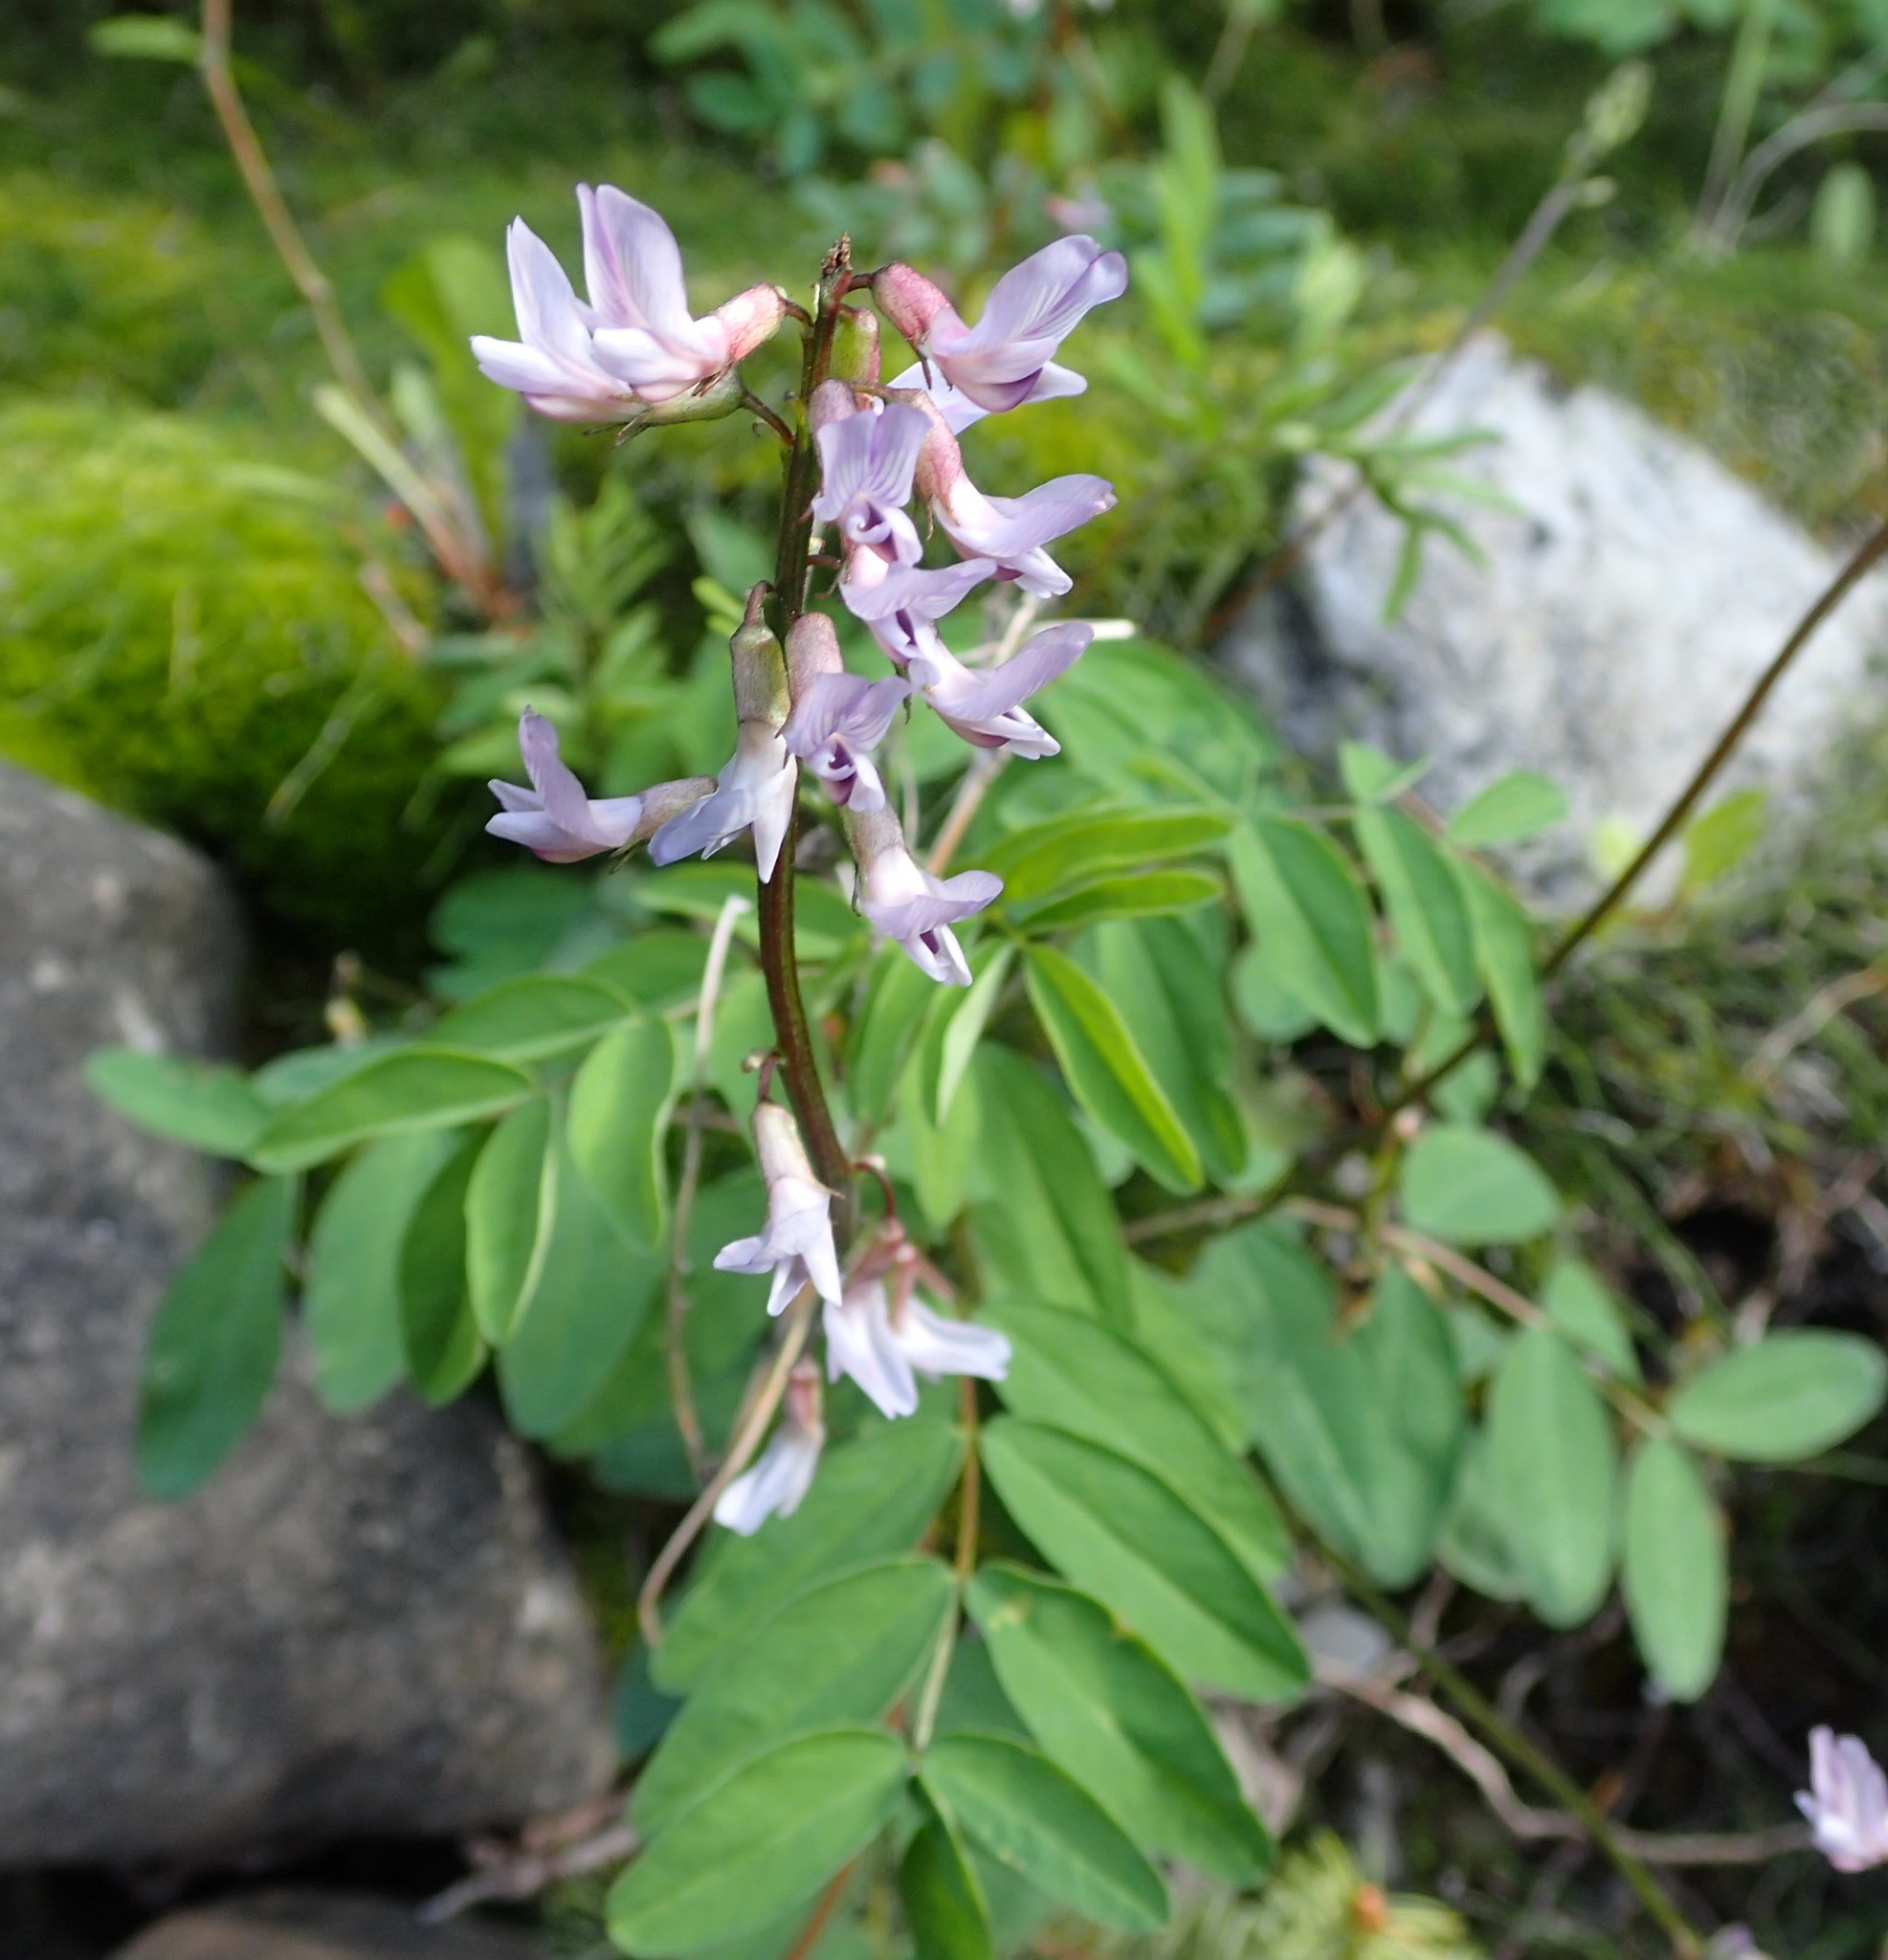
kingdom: Plantae
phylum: Tracheophyta
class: Magnoliopsida
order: Fabales
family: Fabaceae
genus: Astragalus
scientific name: Astragalus robbinsii
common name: Robbins' milk-vetch
